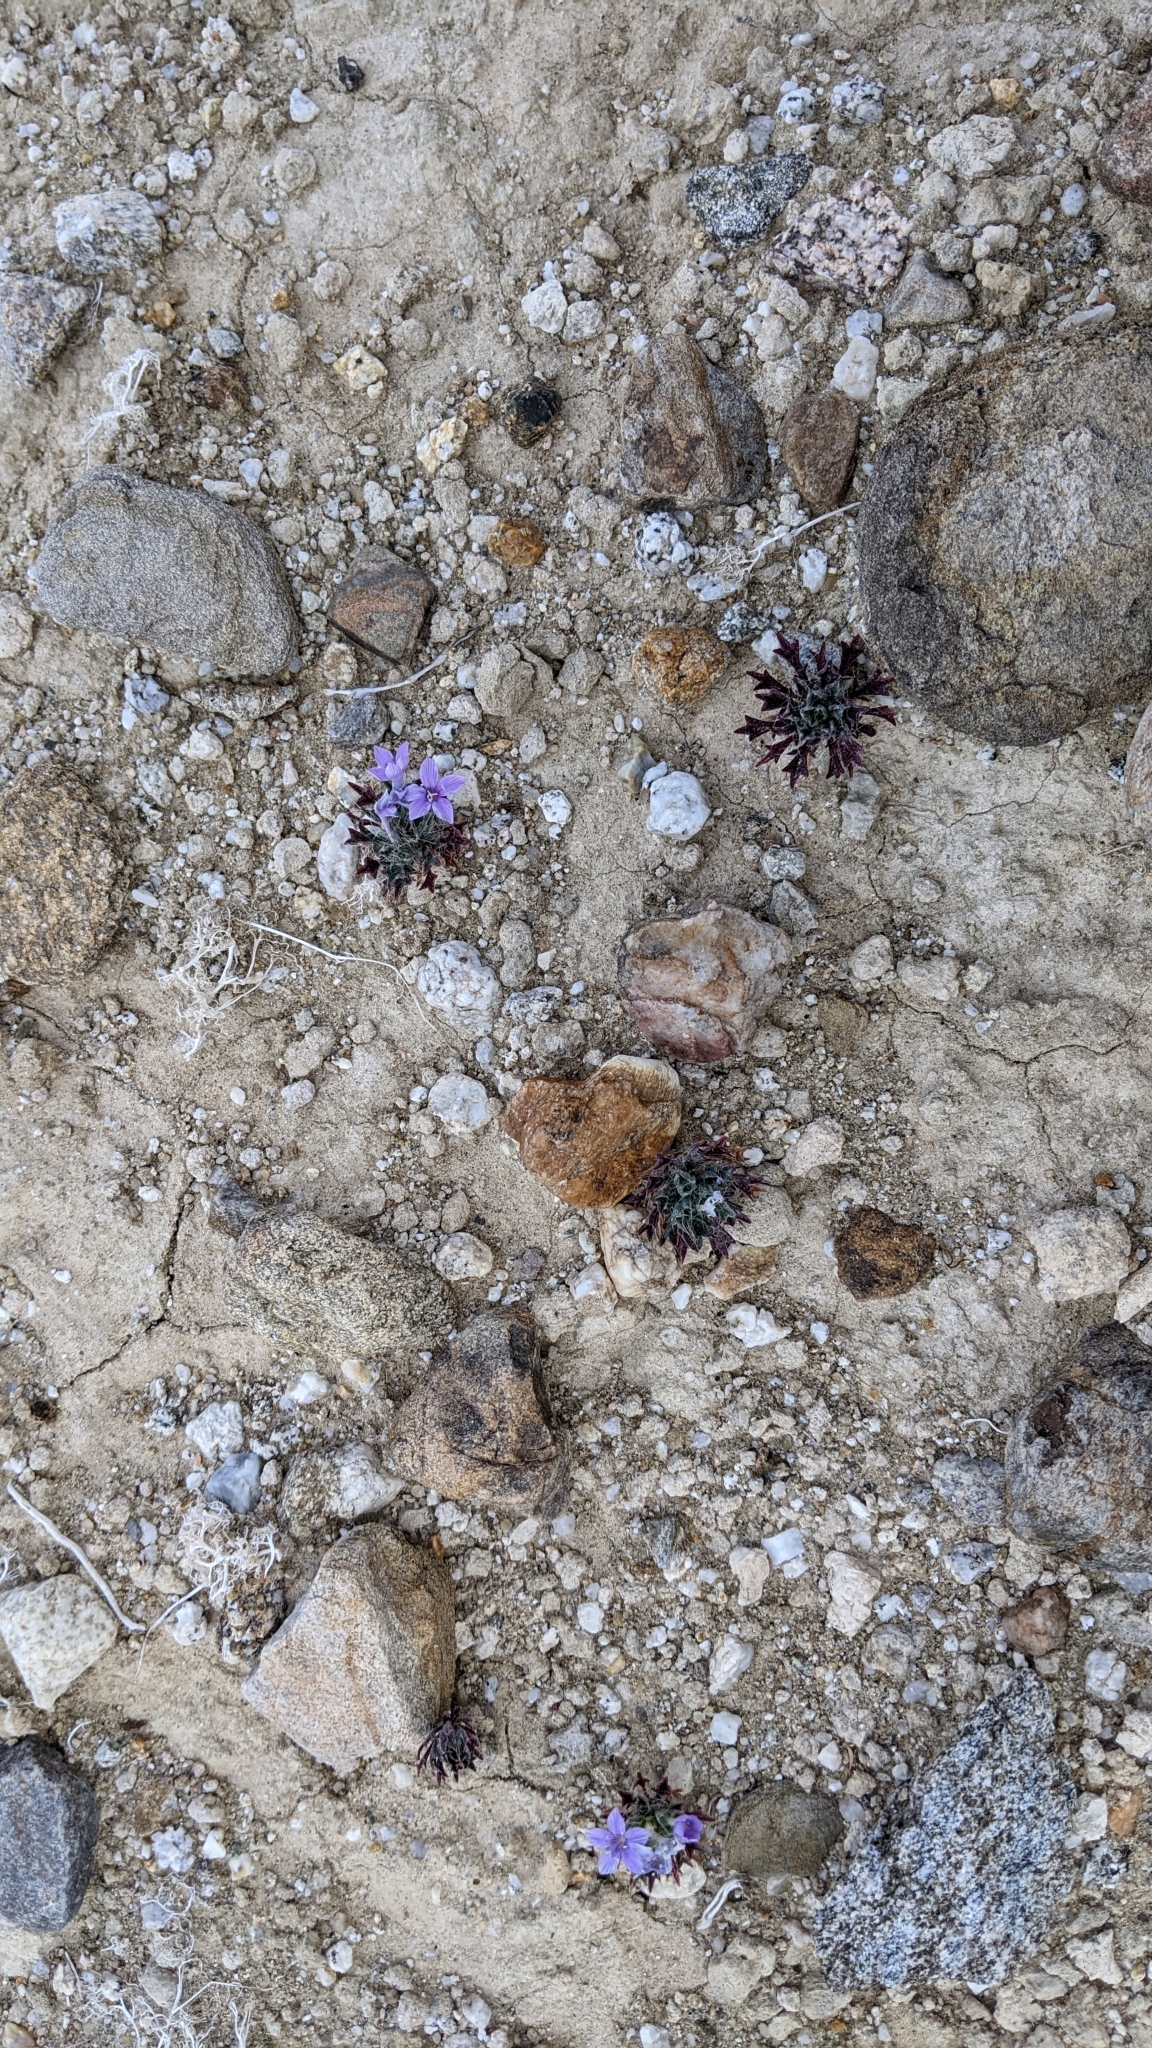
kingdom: Plantae
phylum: Tracheophyta
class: Magnoliopsida
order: Ericales
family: Polemoniaceae
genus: Langloisia
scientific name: Langloisia setosissima
